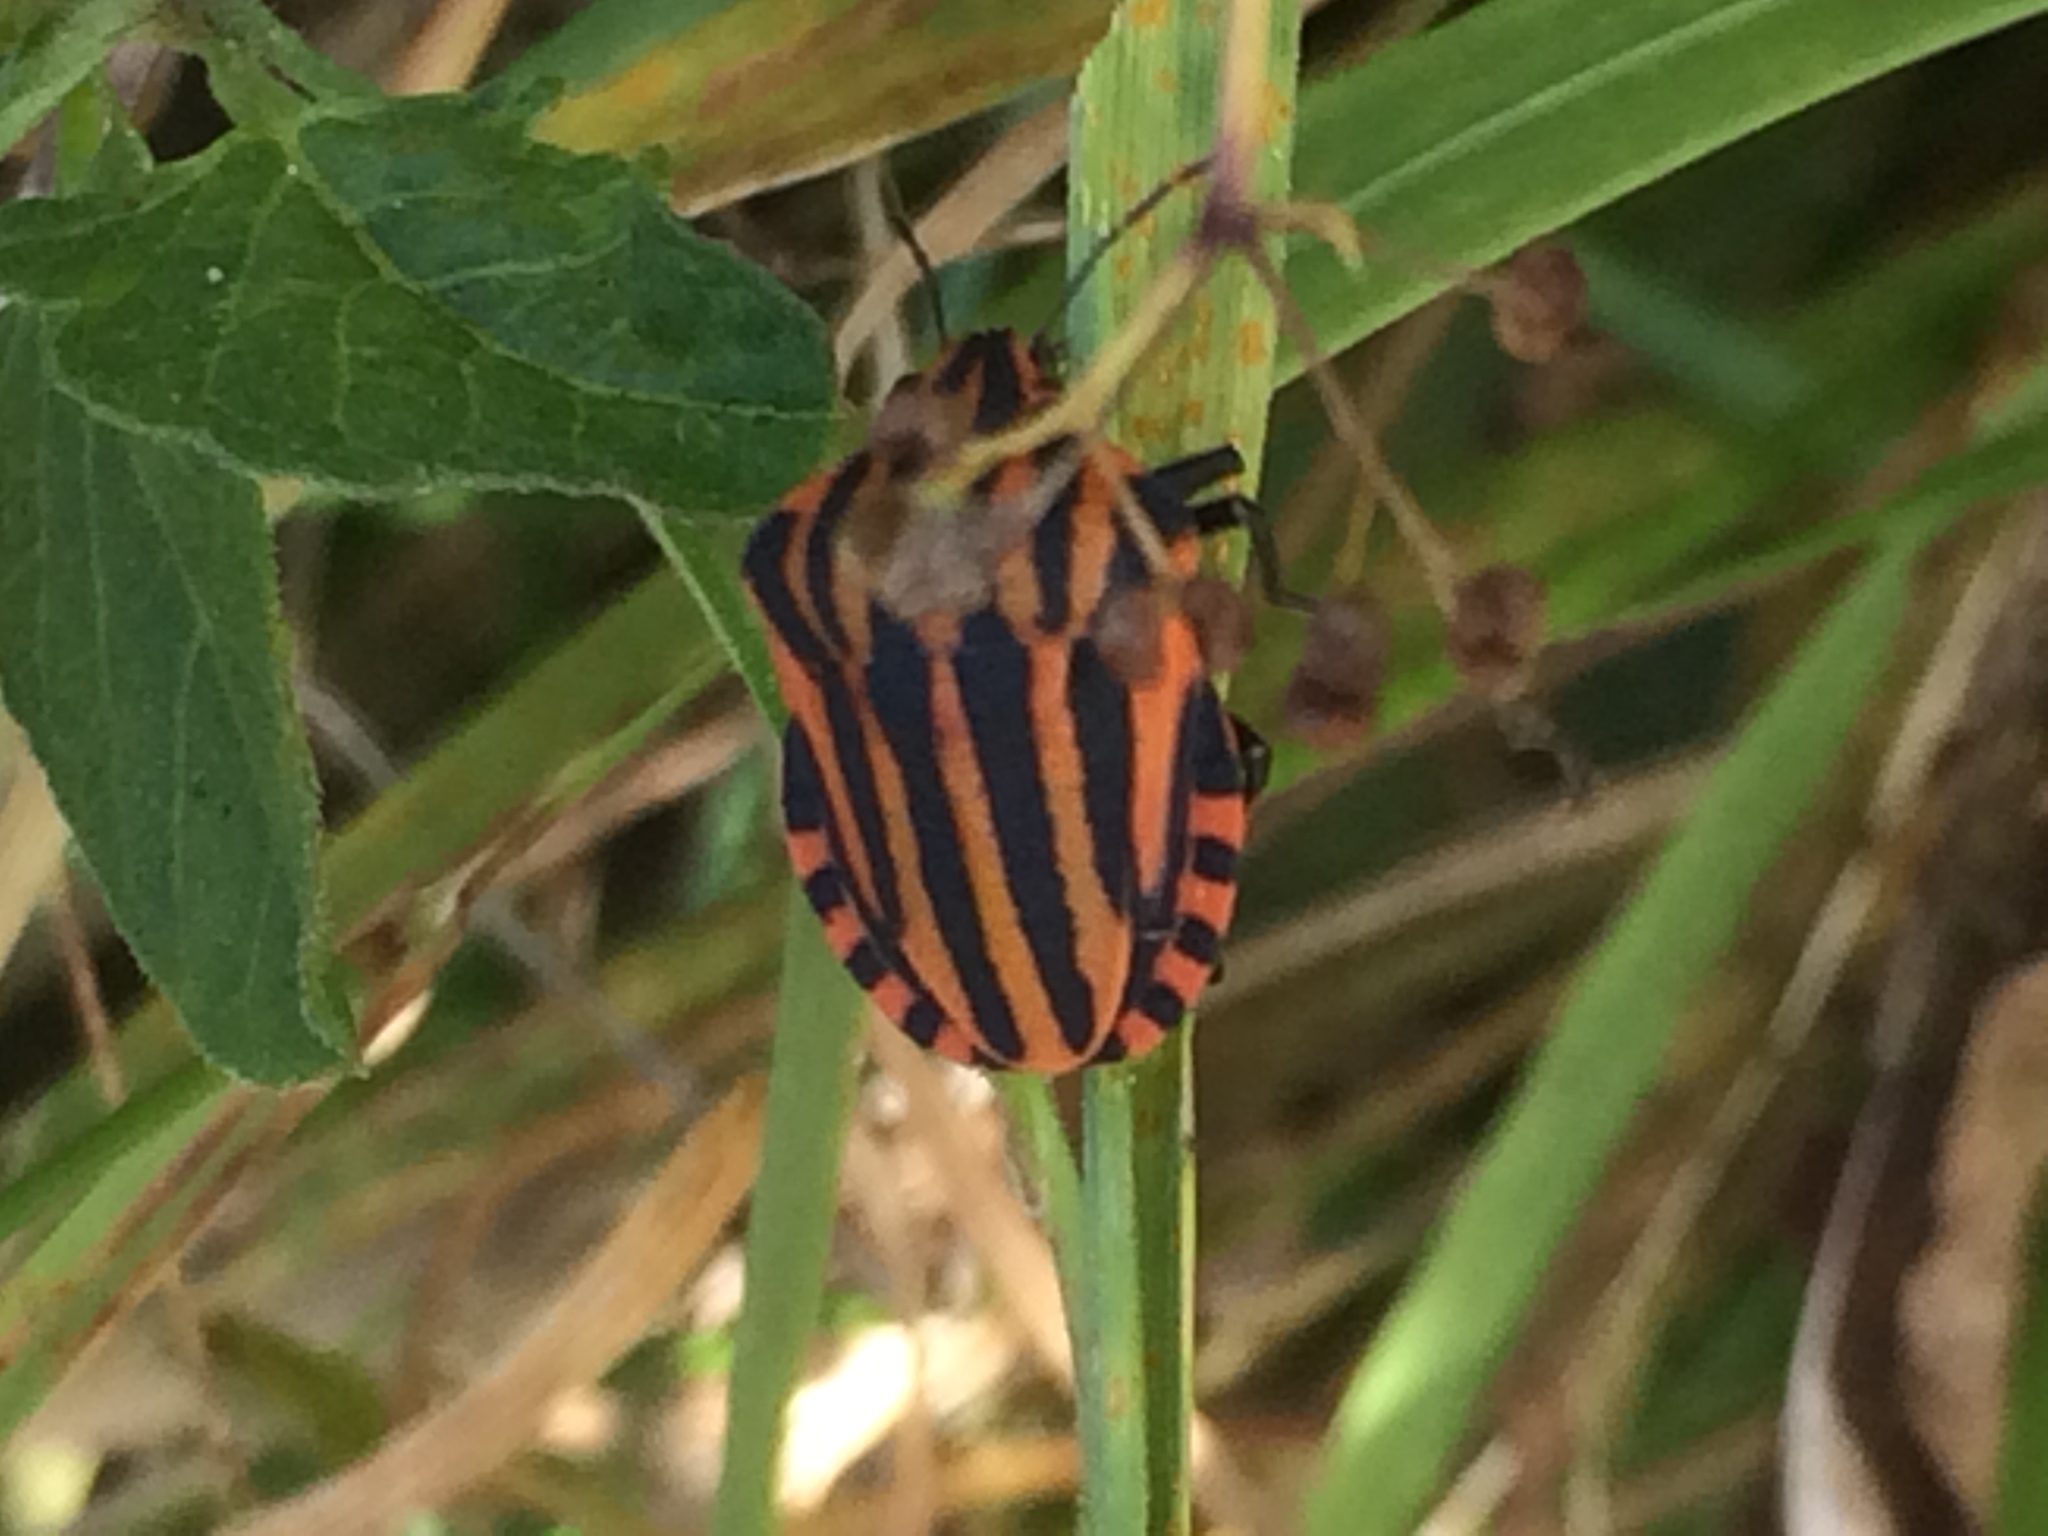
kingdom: Animalia
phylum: Arthropoda
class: Insecta
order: Hemiptera
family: Pentatomidae
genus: Graphosoma
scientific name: Graphosoma italicum
